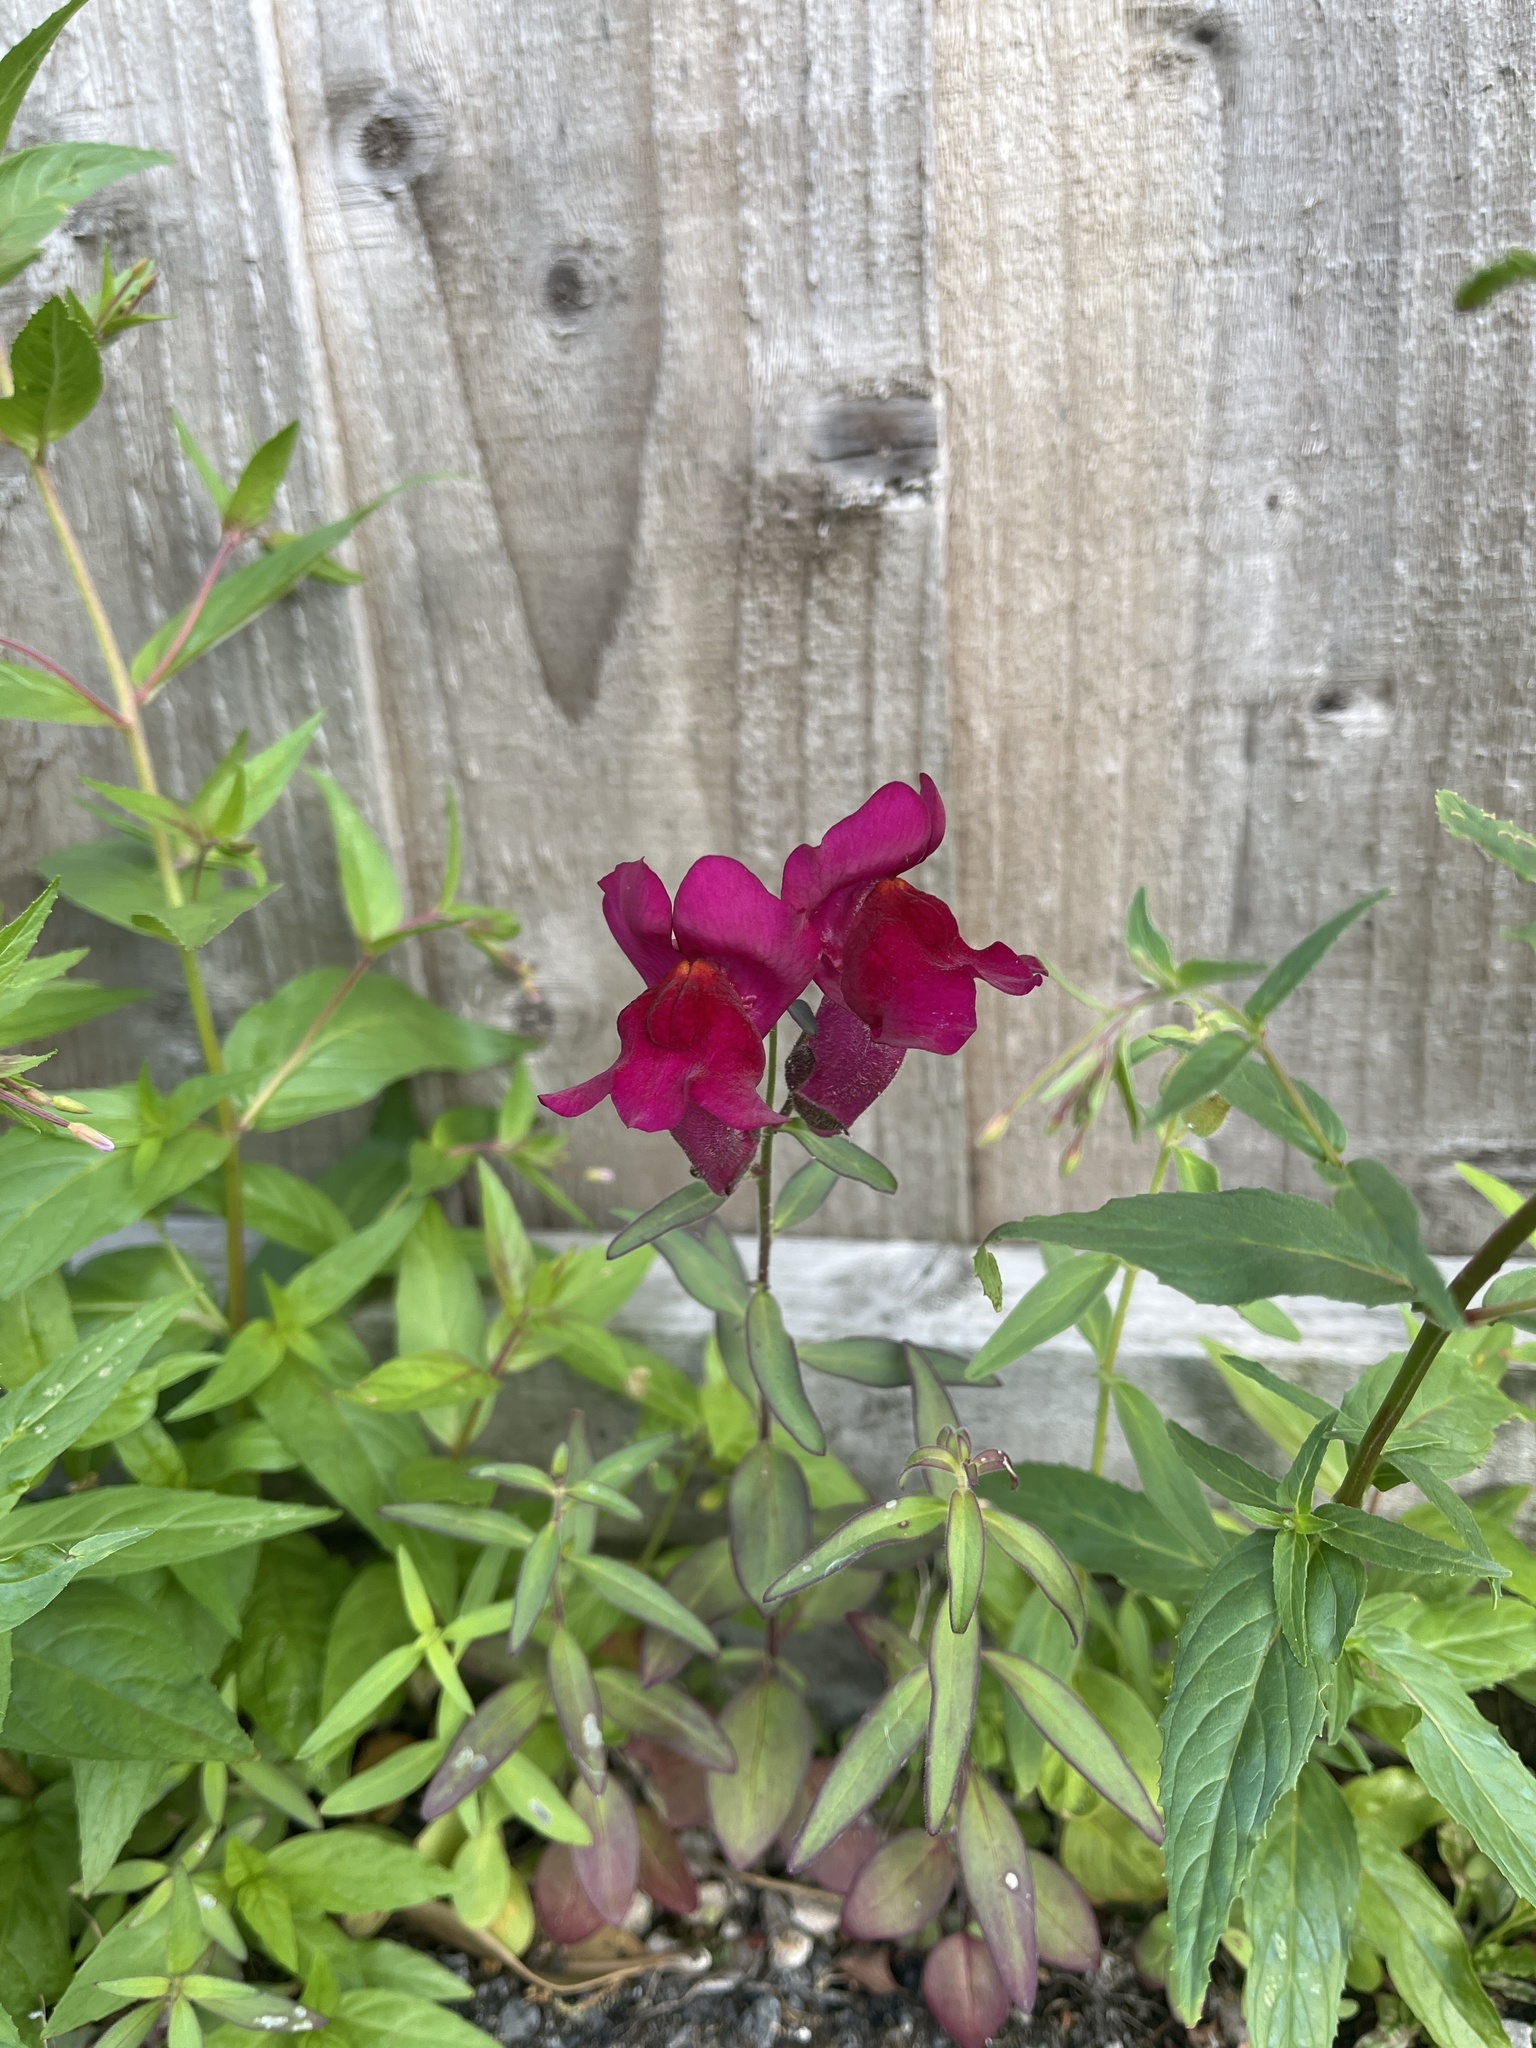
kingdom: Plantae
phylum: Tracheophyta
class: Magnoliopsida
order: Lamiales
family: Plantaginaceae
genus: Antirrhinum
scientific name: Antirrhinum majus
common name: Snapdragon
